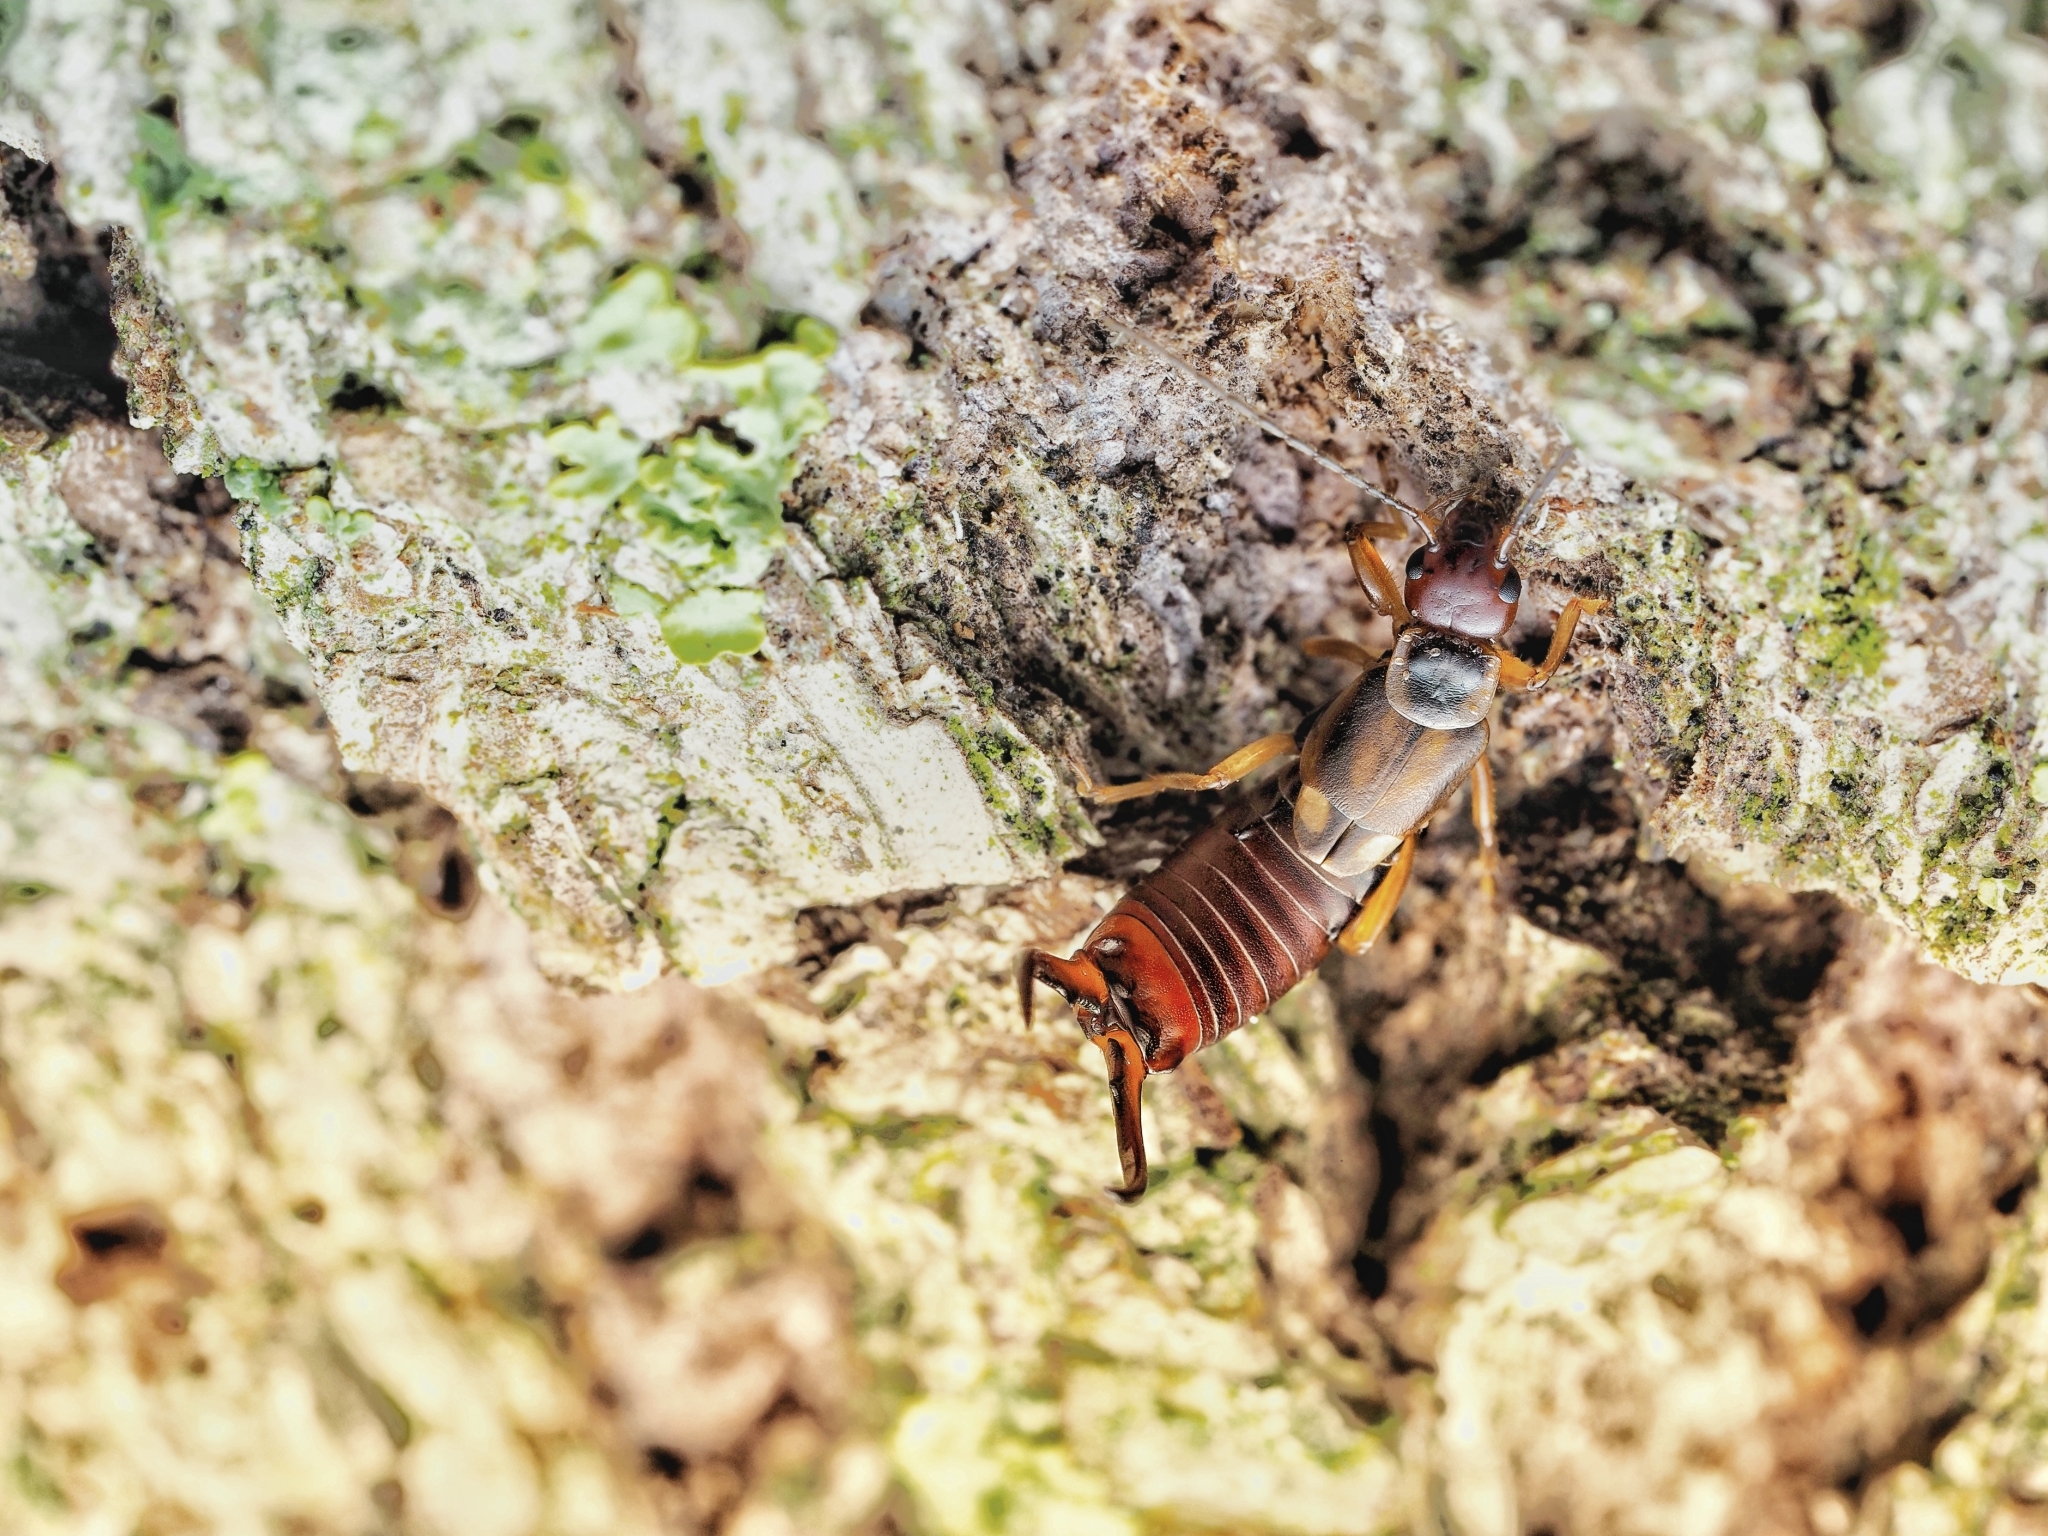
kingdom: Animalia
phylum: Arthropoda
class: Insecta
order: Dermaptera
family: Forficulidae
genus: Forficula
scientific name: Forficula
